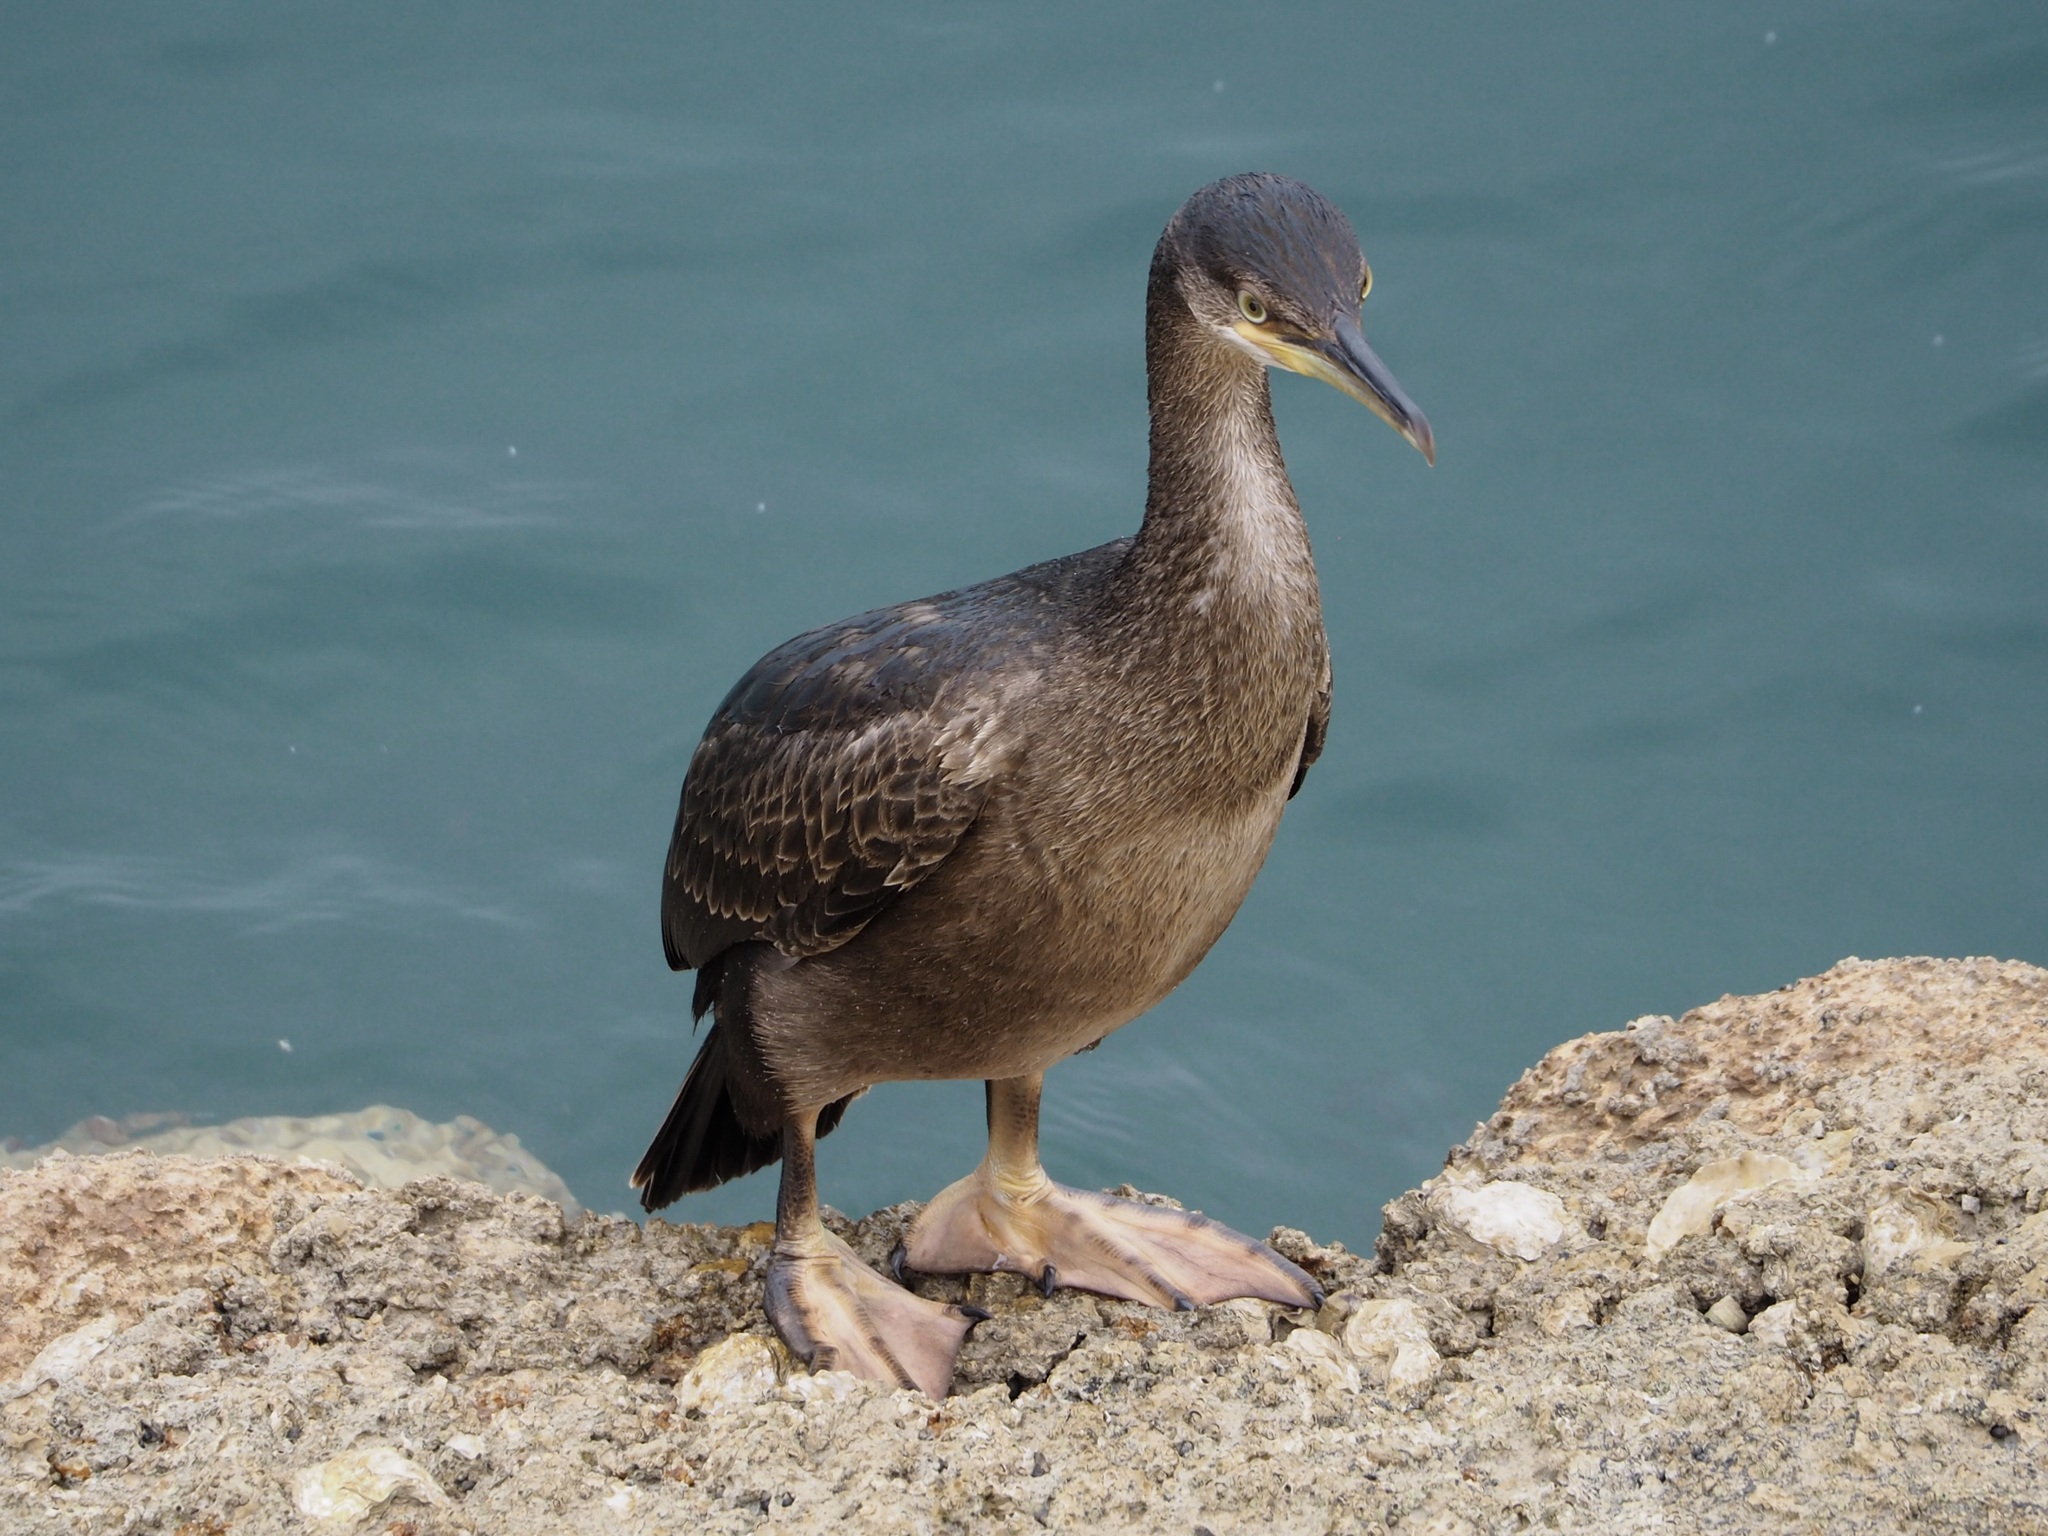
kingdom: Animalia
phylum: Chordata
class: Aves
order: Suliformes
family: Phalacrocoracidae
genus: Phalacrocorax
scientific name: Phalacrocorax aristotelis
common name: European shag
